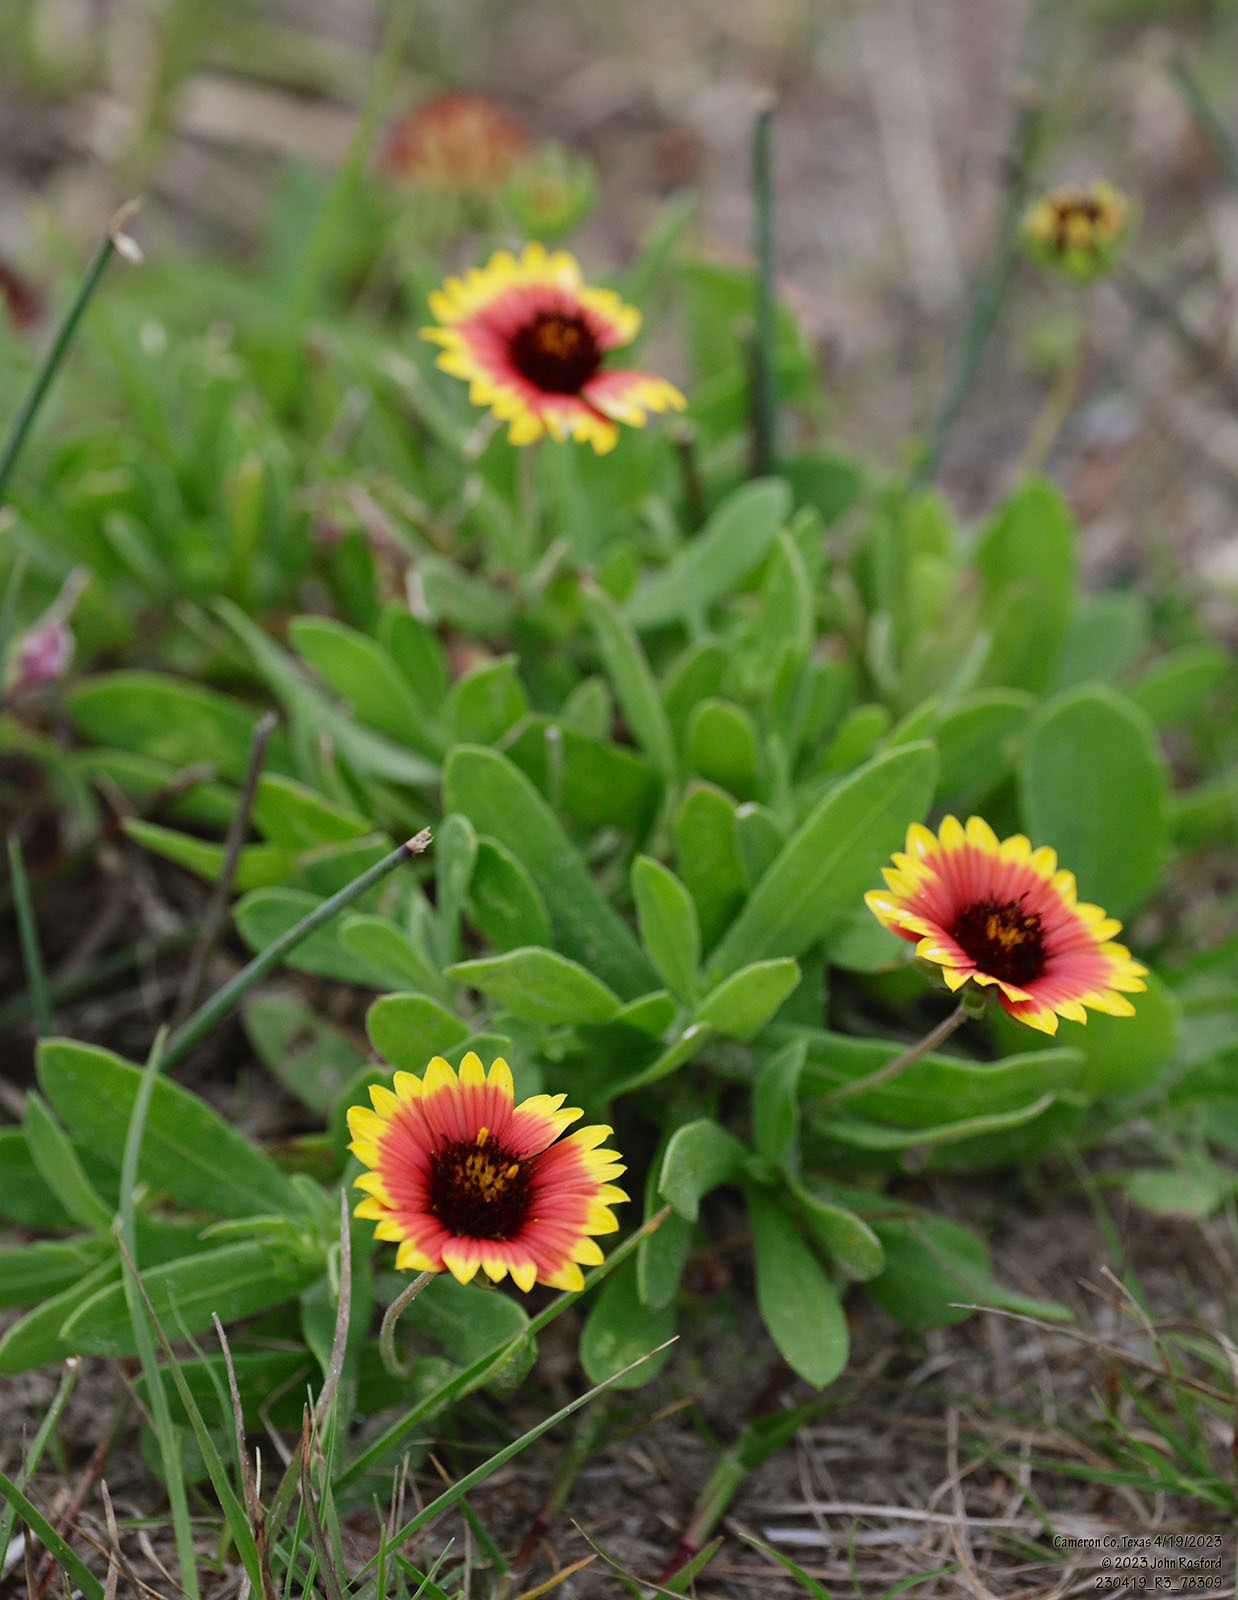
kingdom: Plantae
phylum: Tracheophyta
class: Magnoliopsida
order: Asterales
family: Asteraceae
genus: Gaillardia
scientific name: Gaillardia pulchella
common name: Firewheel
